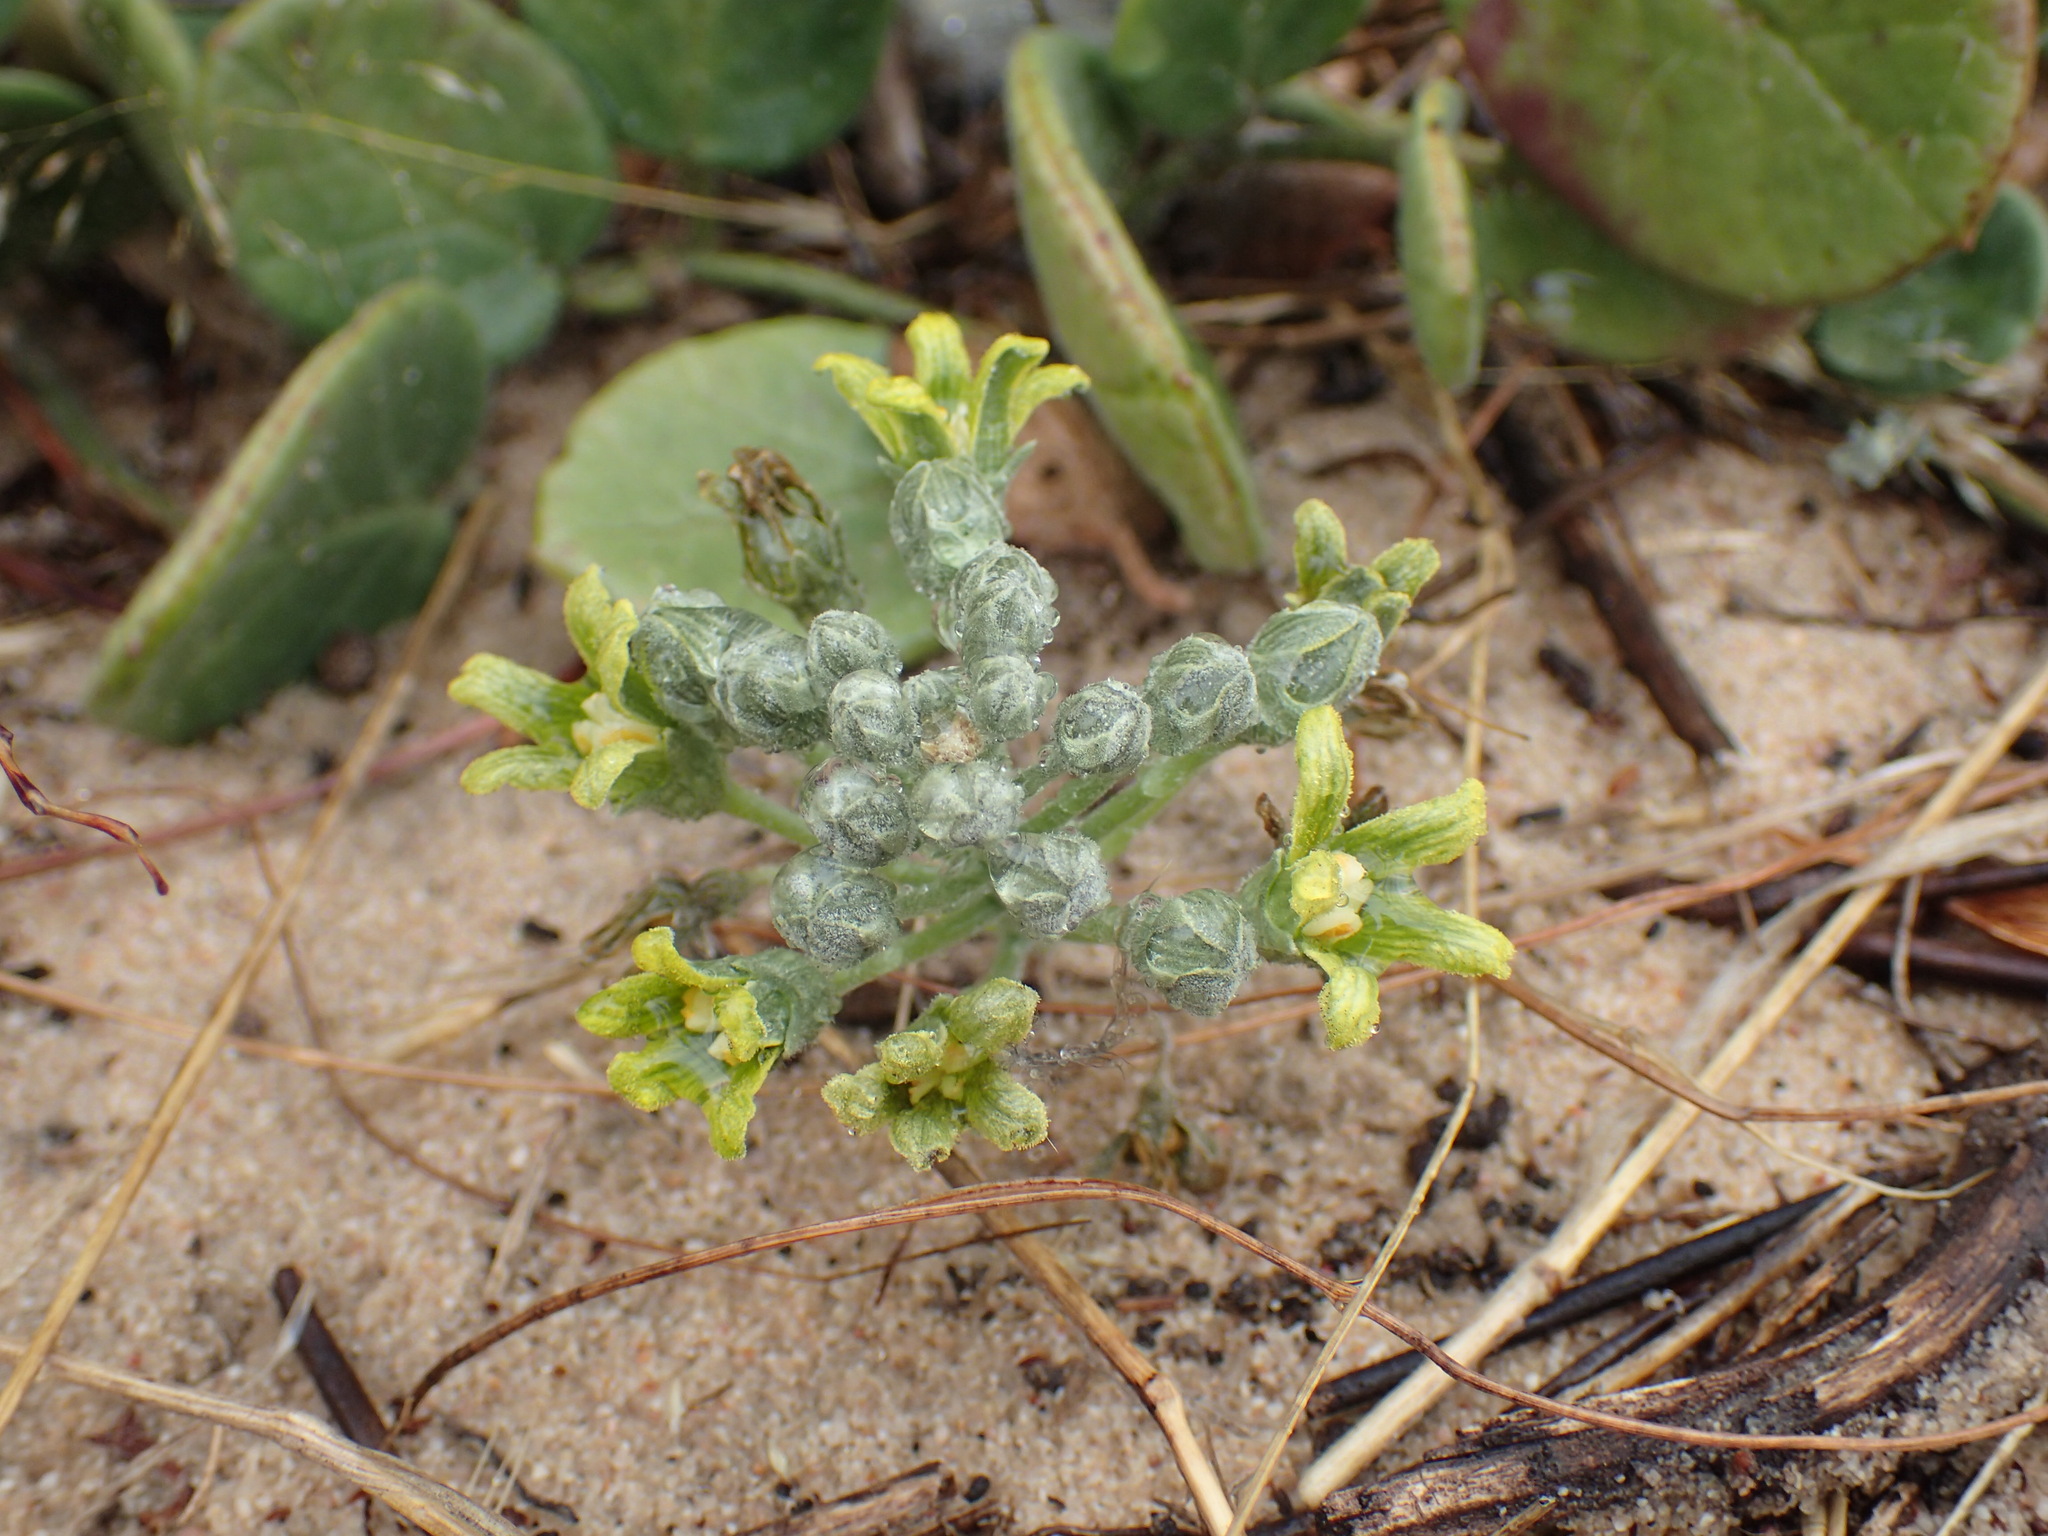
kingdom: Plantae
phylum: Tracheophyta
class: Magnoliopsida
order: Cucurbitales
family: Cucurbitaceae
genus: Kedrostis
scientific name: Kedrostis psammophila
